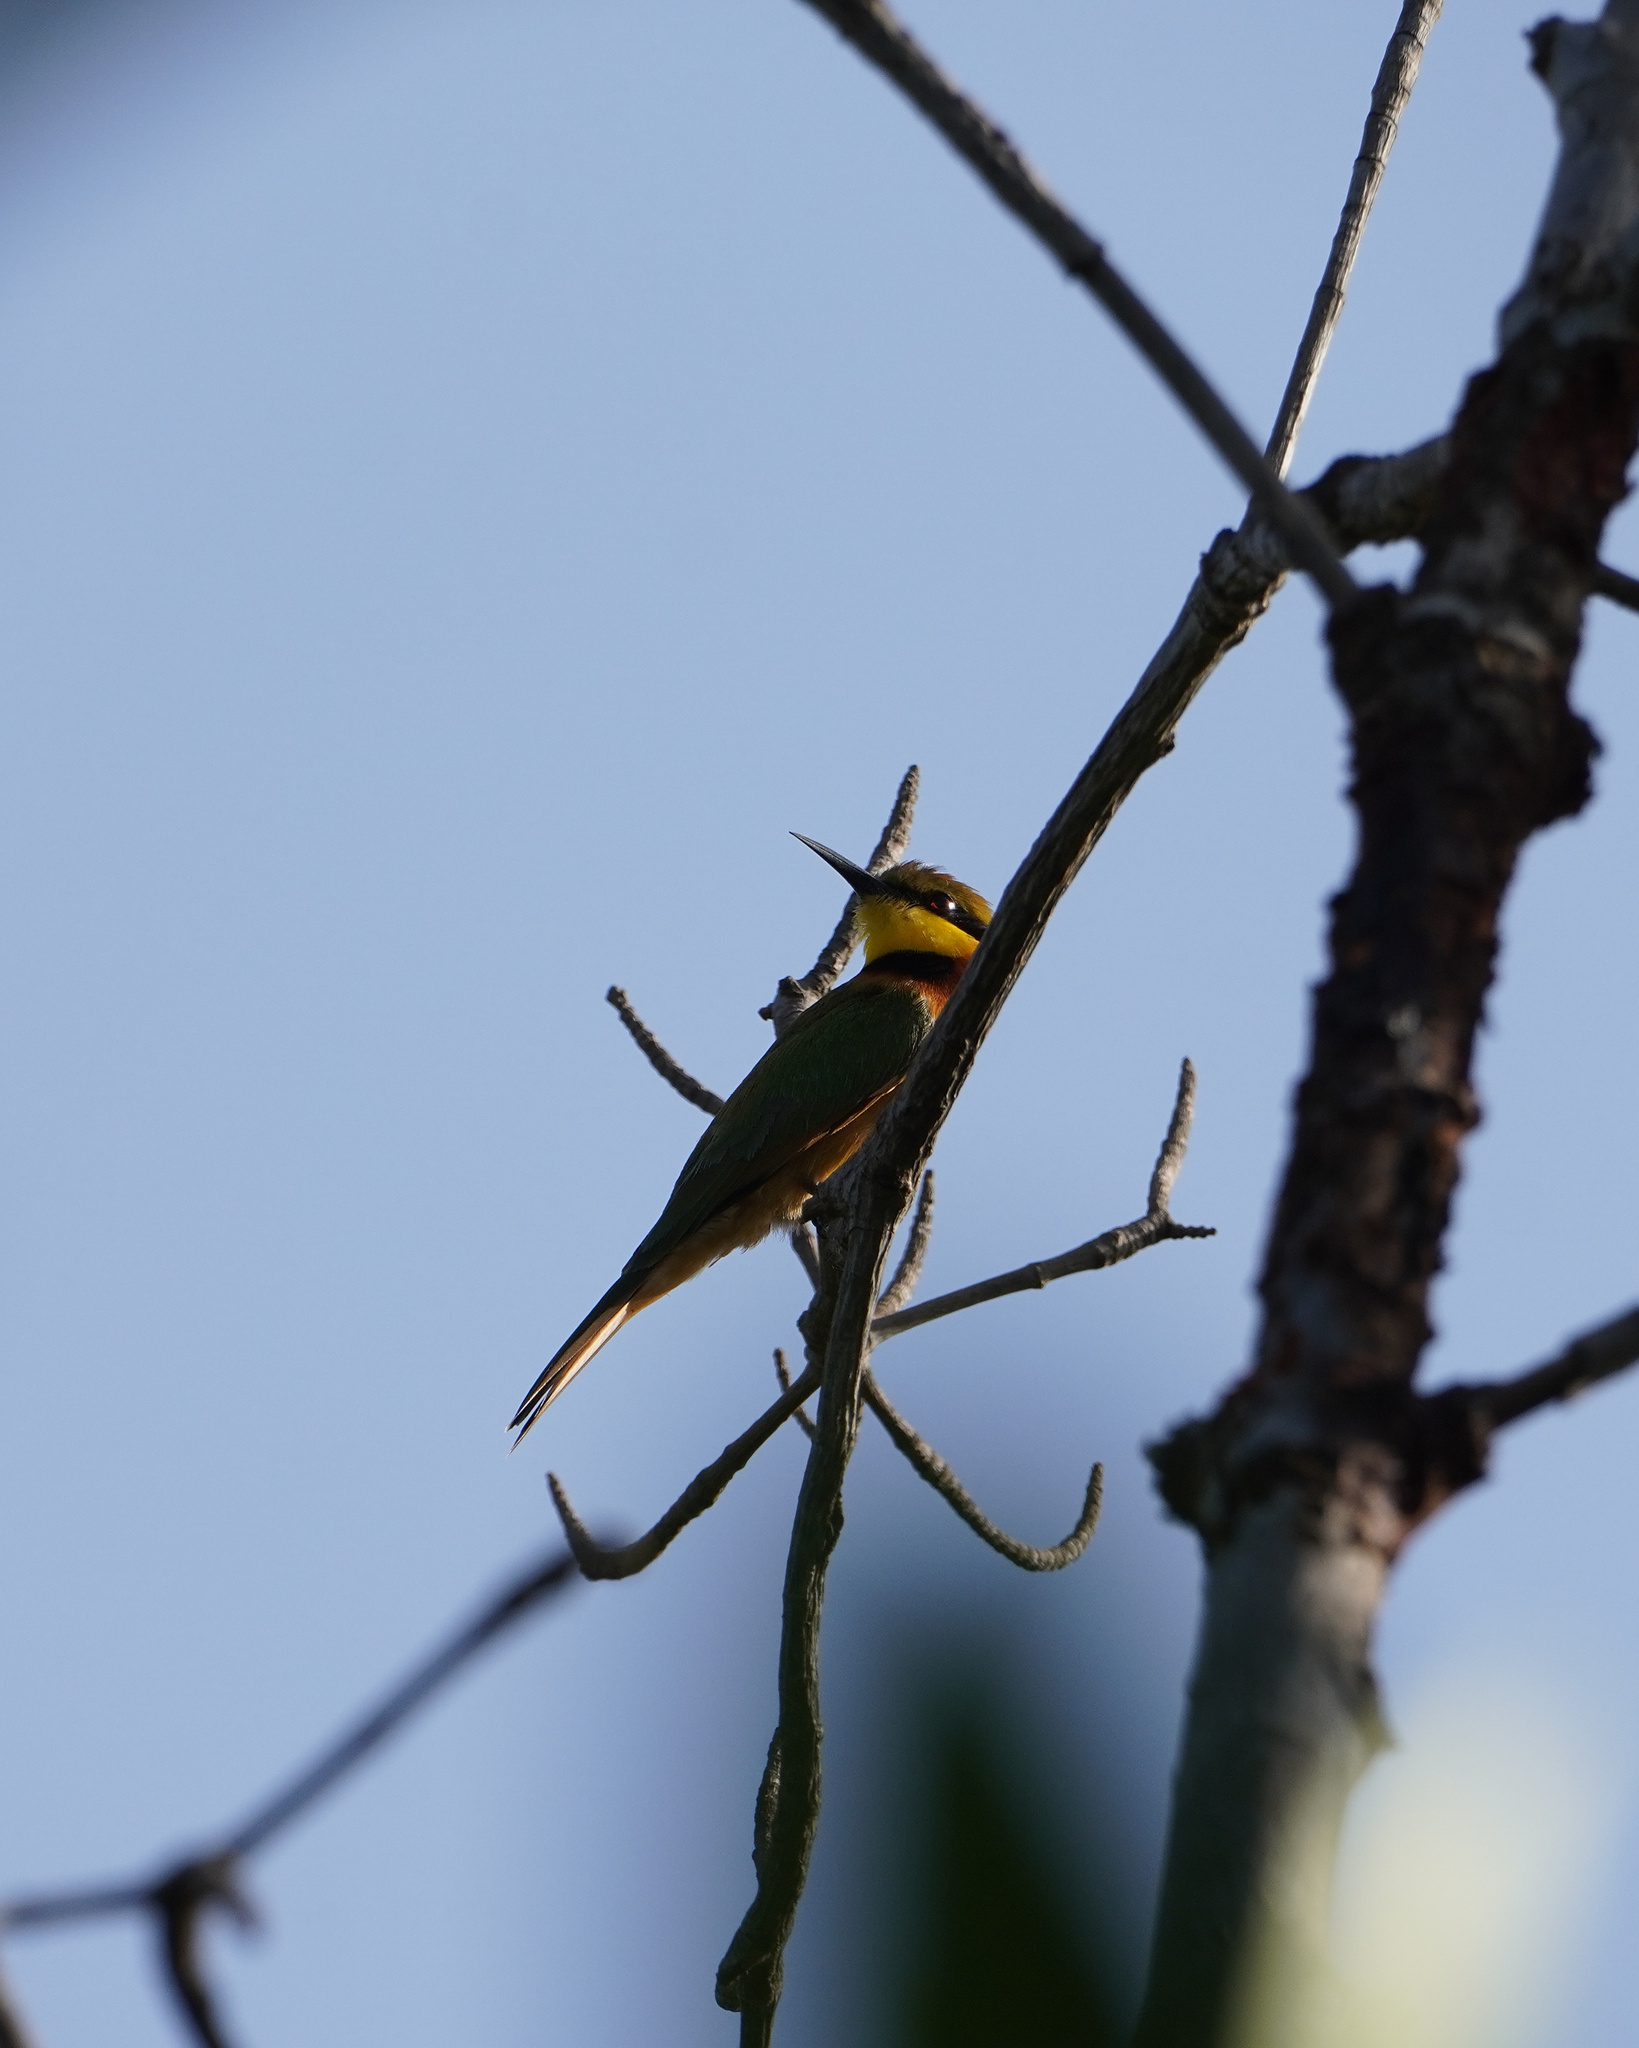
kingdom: Animalia
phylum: Chordata
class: Aves
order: Coraciiformes
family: Meropidae
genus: Merops
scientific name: Merops pusillus
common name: Little bee-eater
